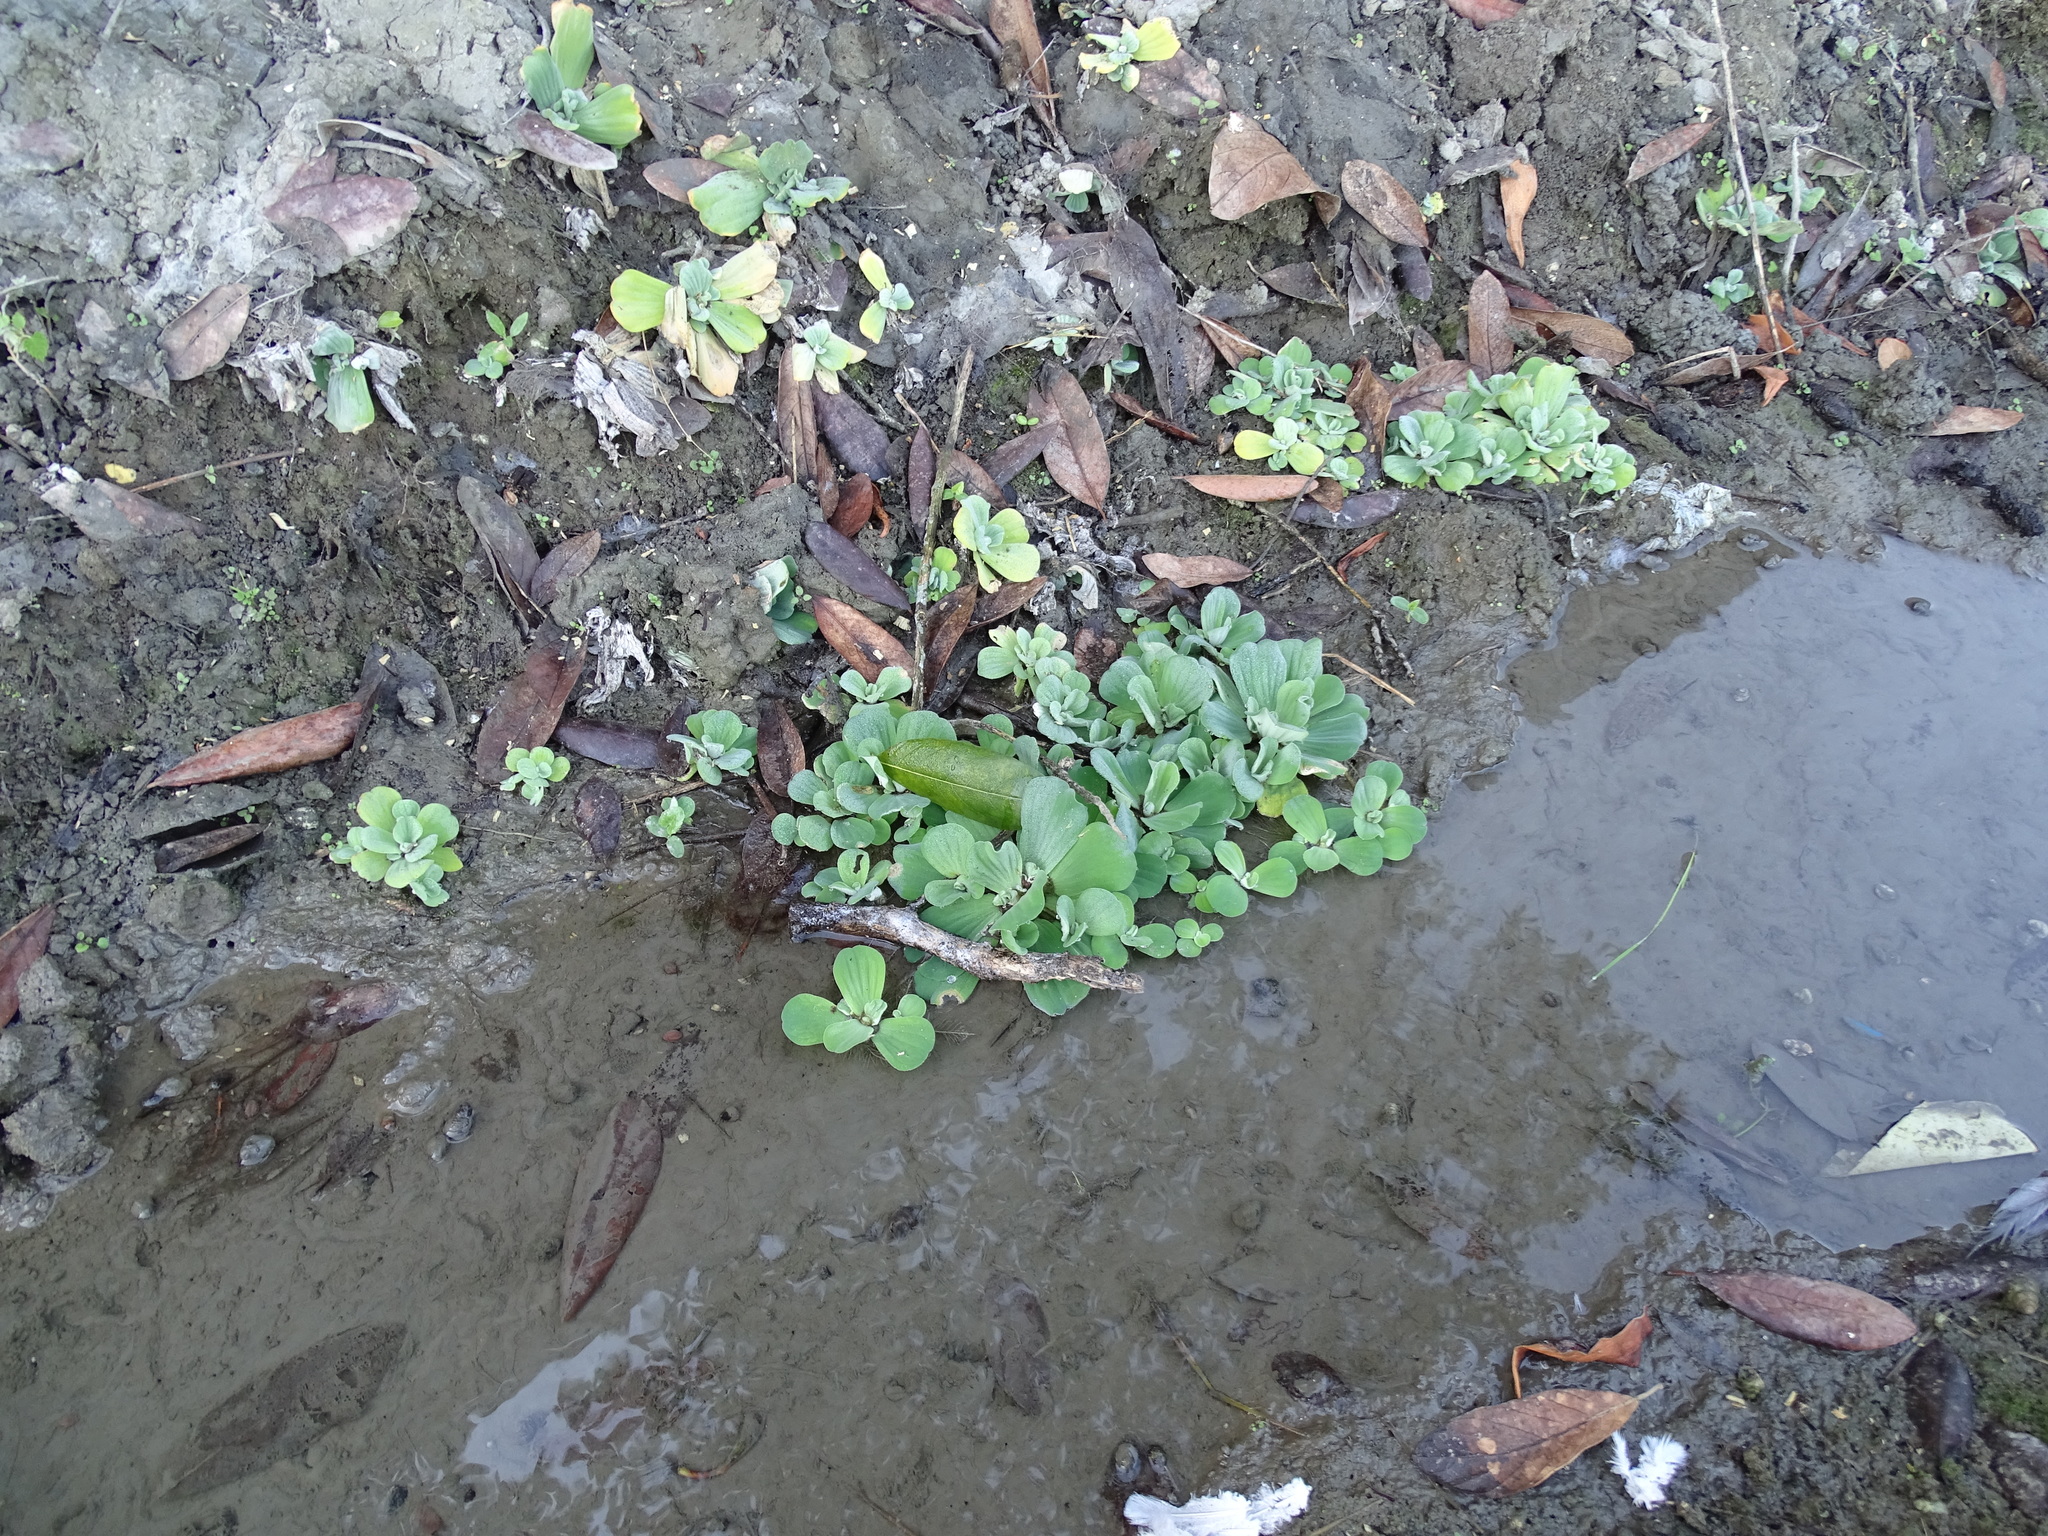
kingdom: Plantae
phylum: Tracheophyta
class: Liliopsida
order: Alismatales
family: Araceae
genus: Pistia
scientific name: Pistia stratiotes
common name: Water lettuce
